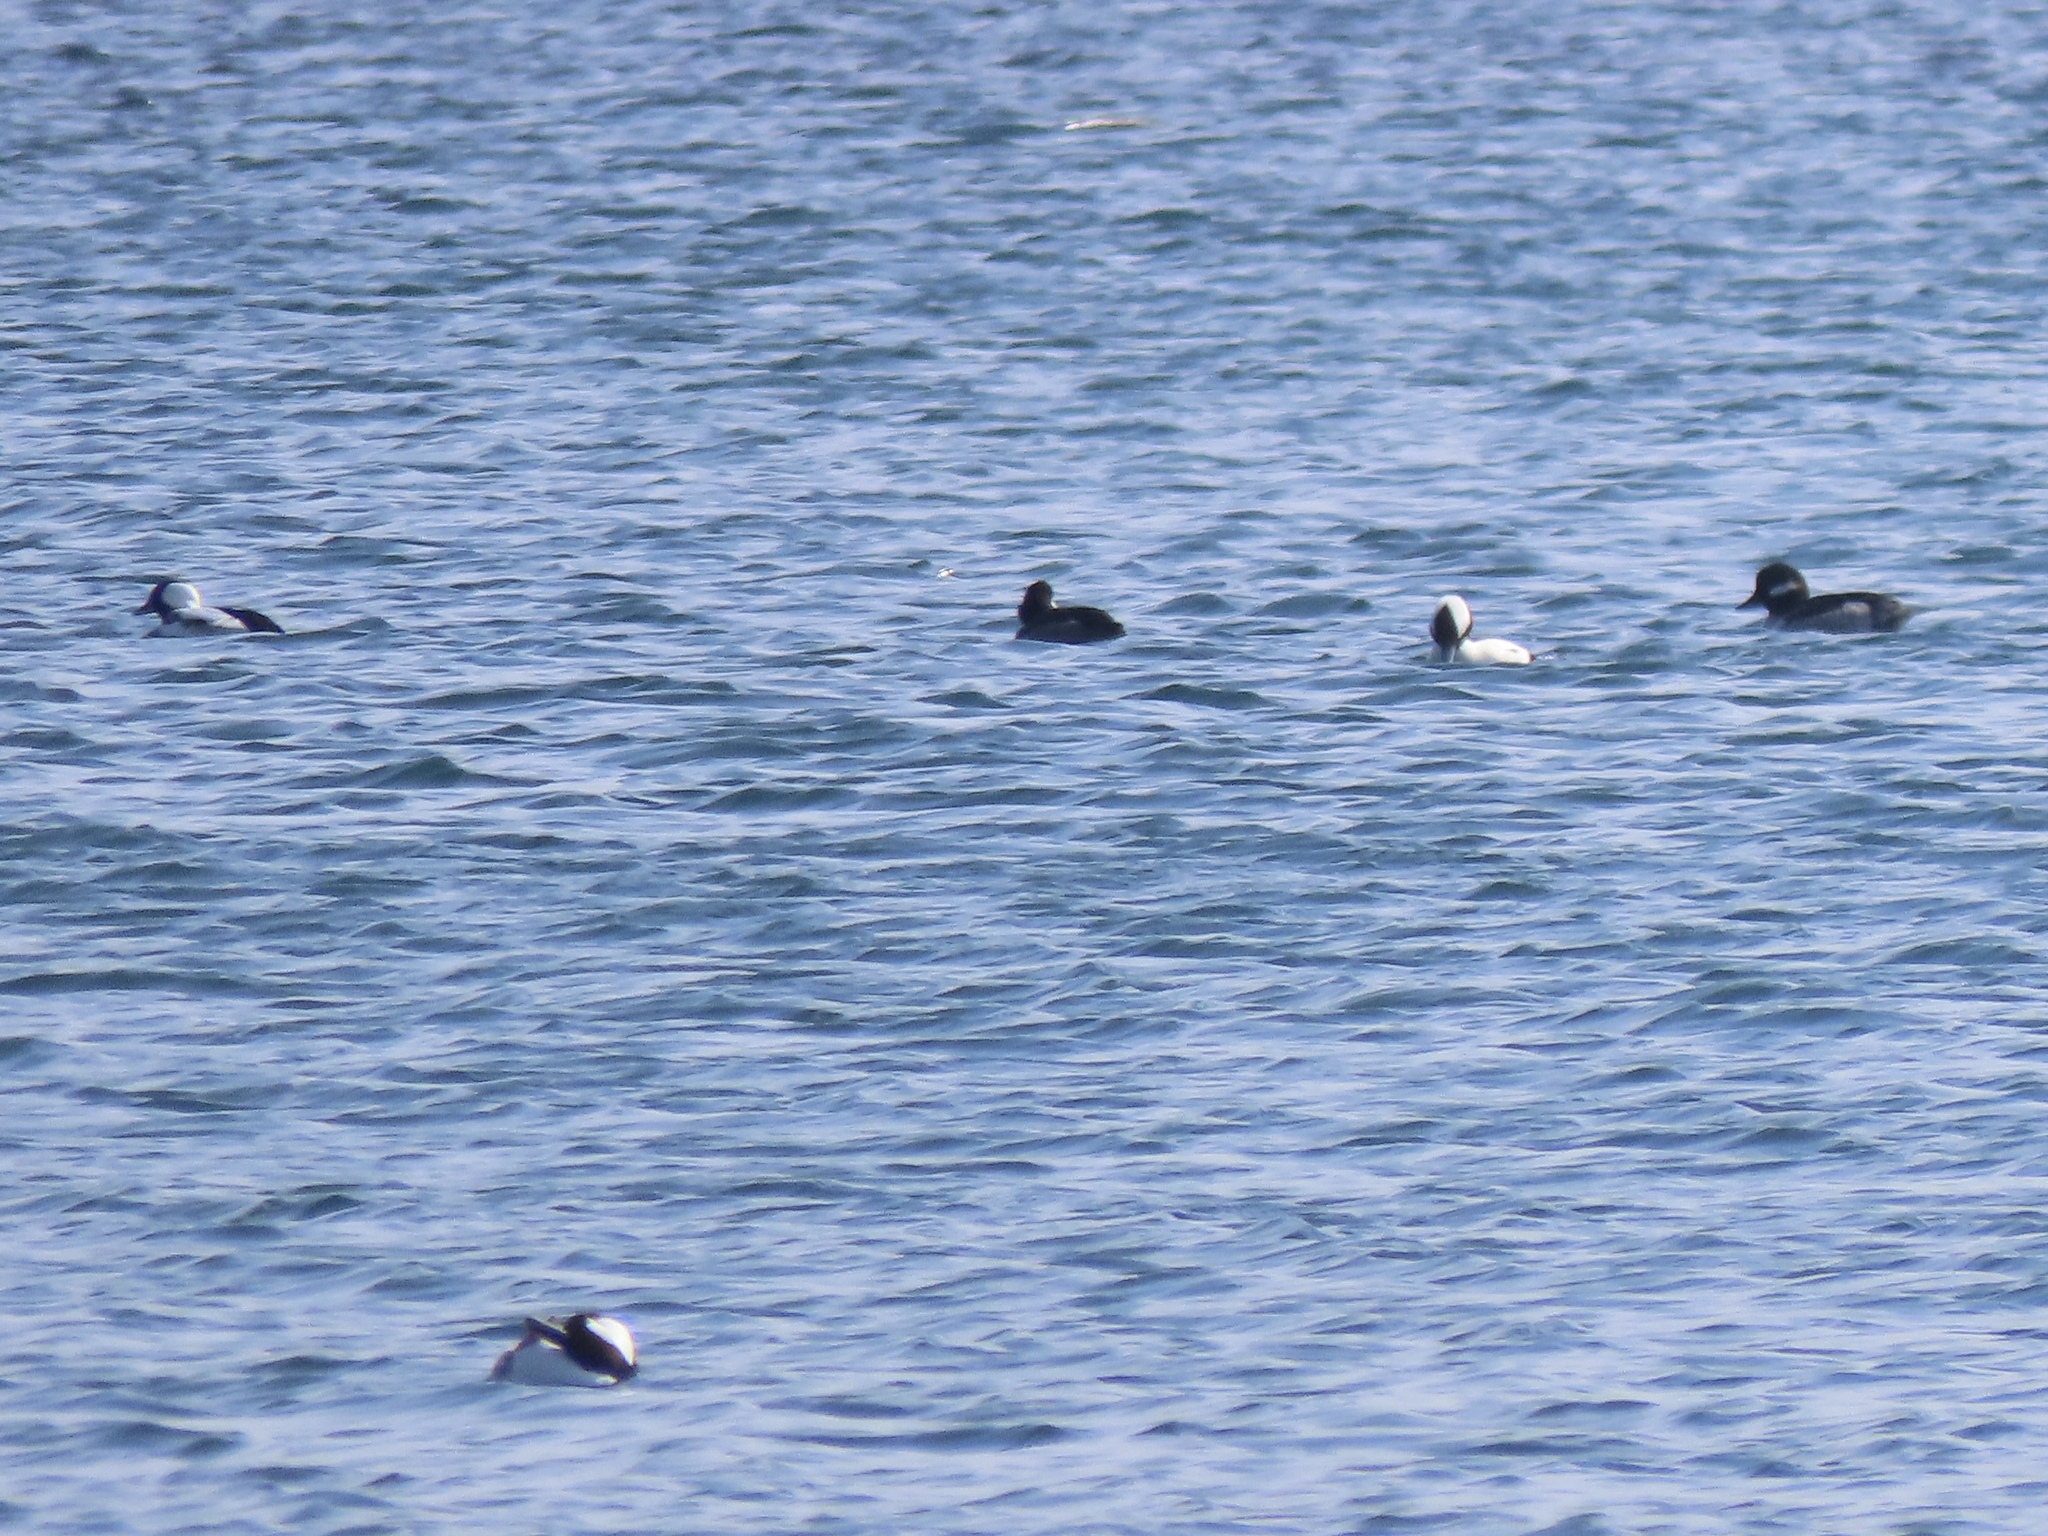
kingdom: Animalia
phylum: Chordata
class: Aves
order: Anseriformes
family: Anatidae
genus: Bucephala
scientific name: Bucephala albeola
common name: Bufflehead
